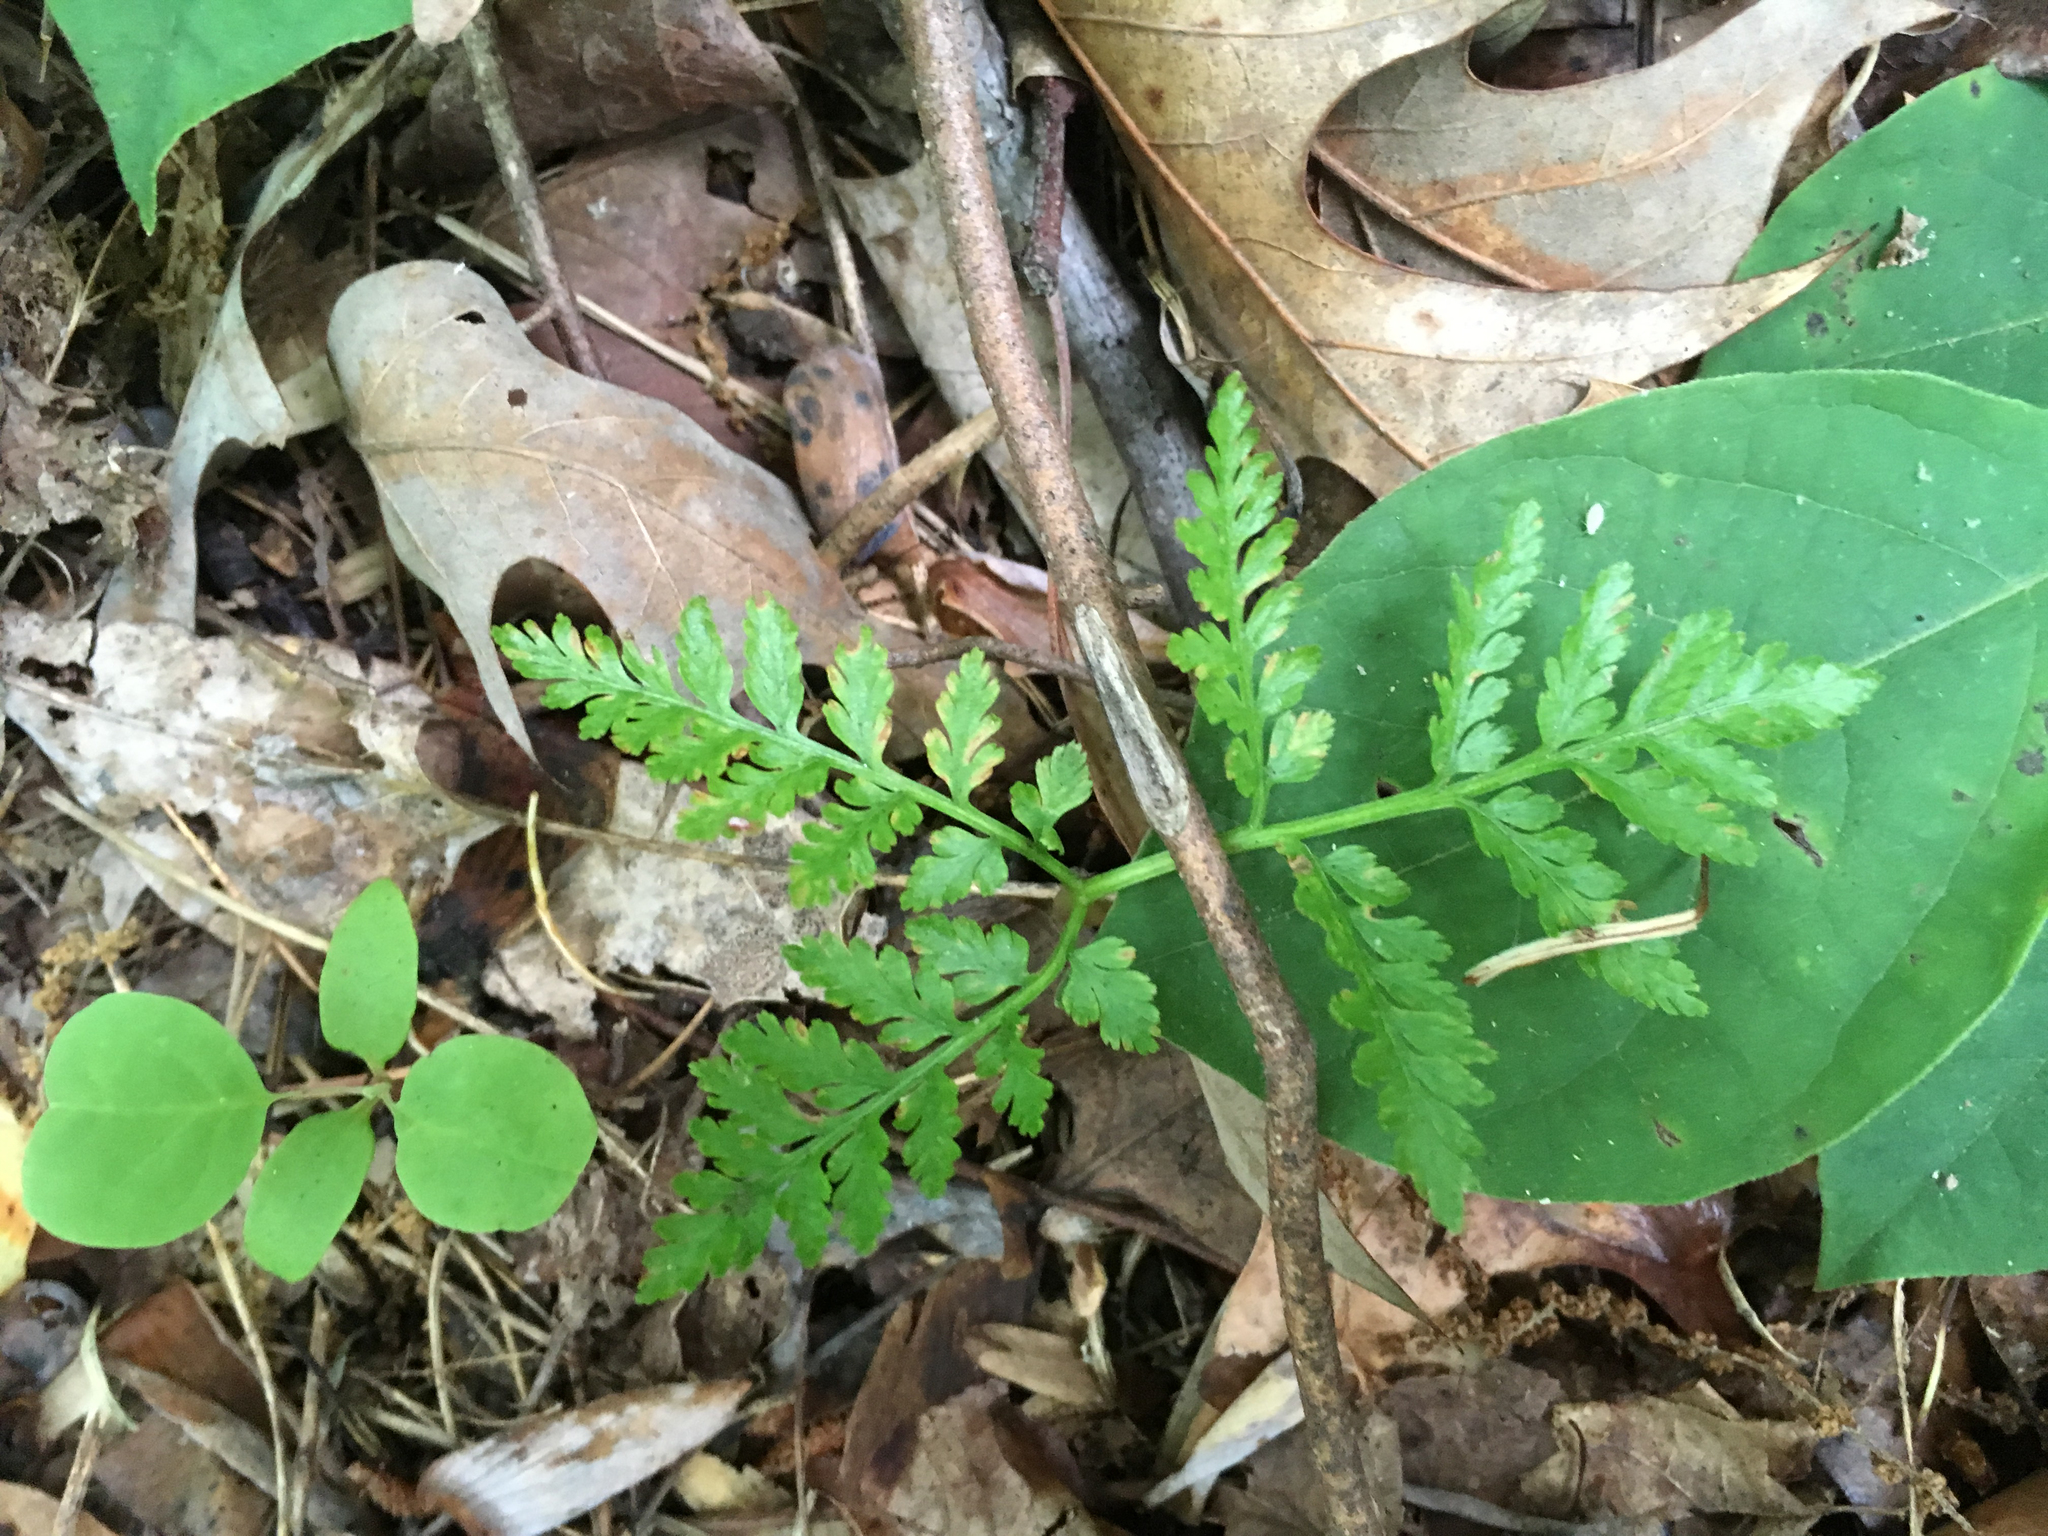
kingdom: Plantae
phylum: Tracheophyta
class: Polypodiopsida
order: Ophioglossales
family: Ophioglossaceae
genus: Botrypus
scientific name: Botrypus virginianus
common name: Common grapefern
